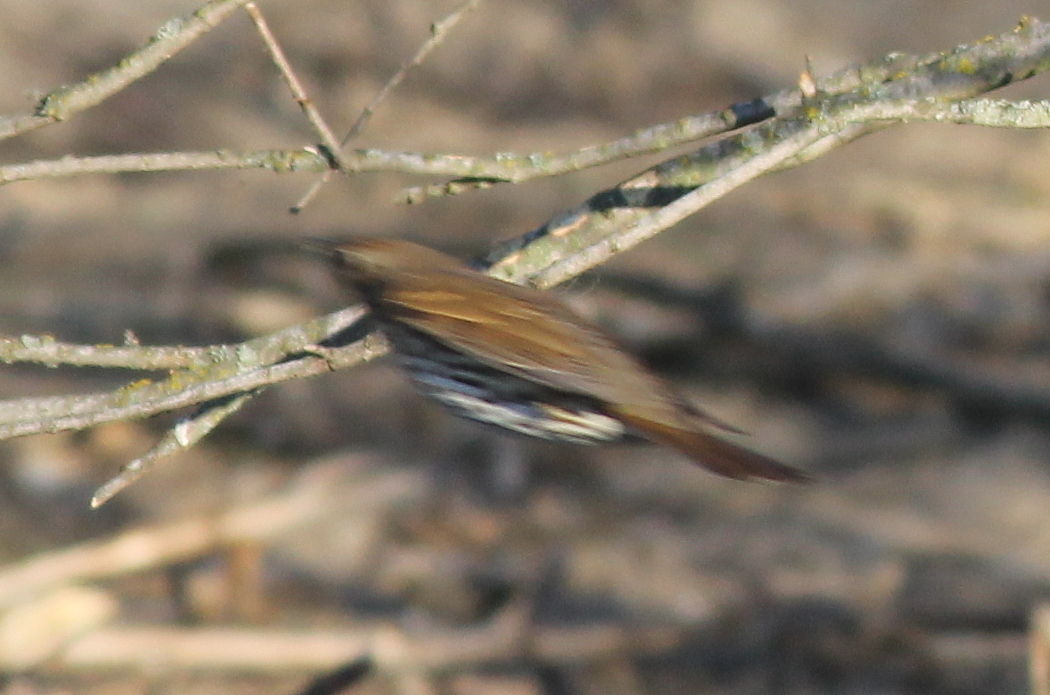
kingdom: Animalia
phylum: Chordata
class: Aves
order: Passeriformes
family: Turdidae
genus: Turdus
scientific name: Turdus philomelos
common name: Song thrush
